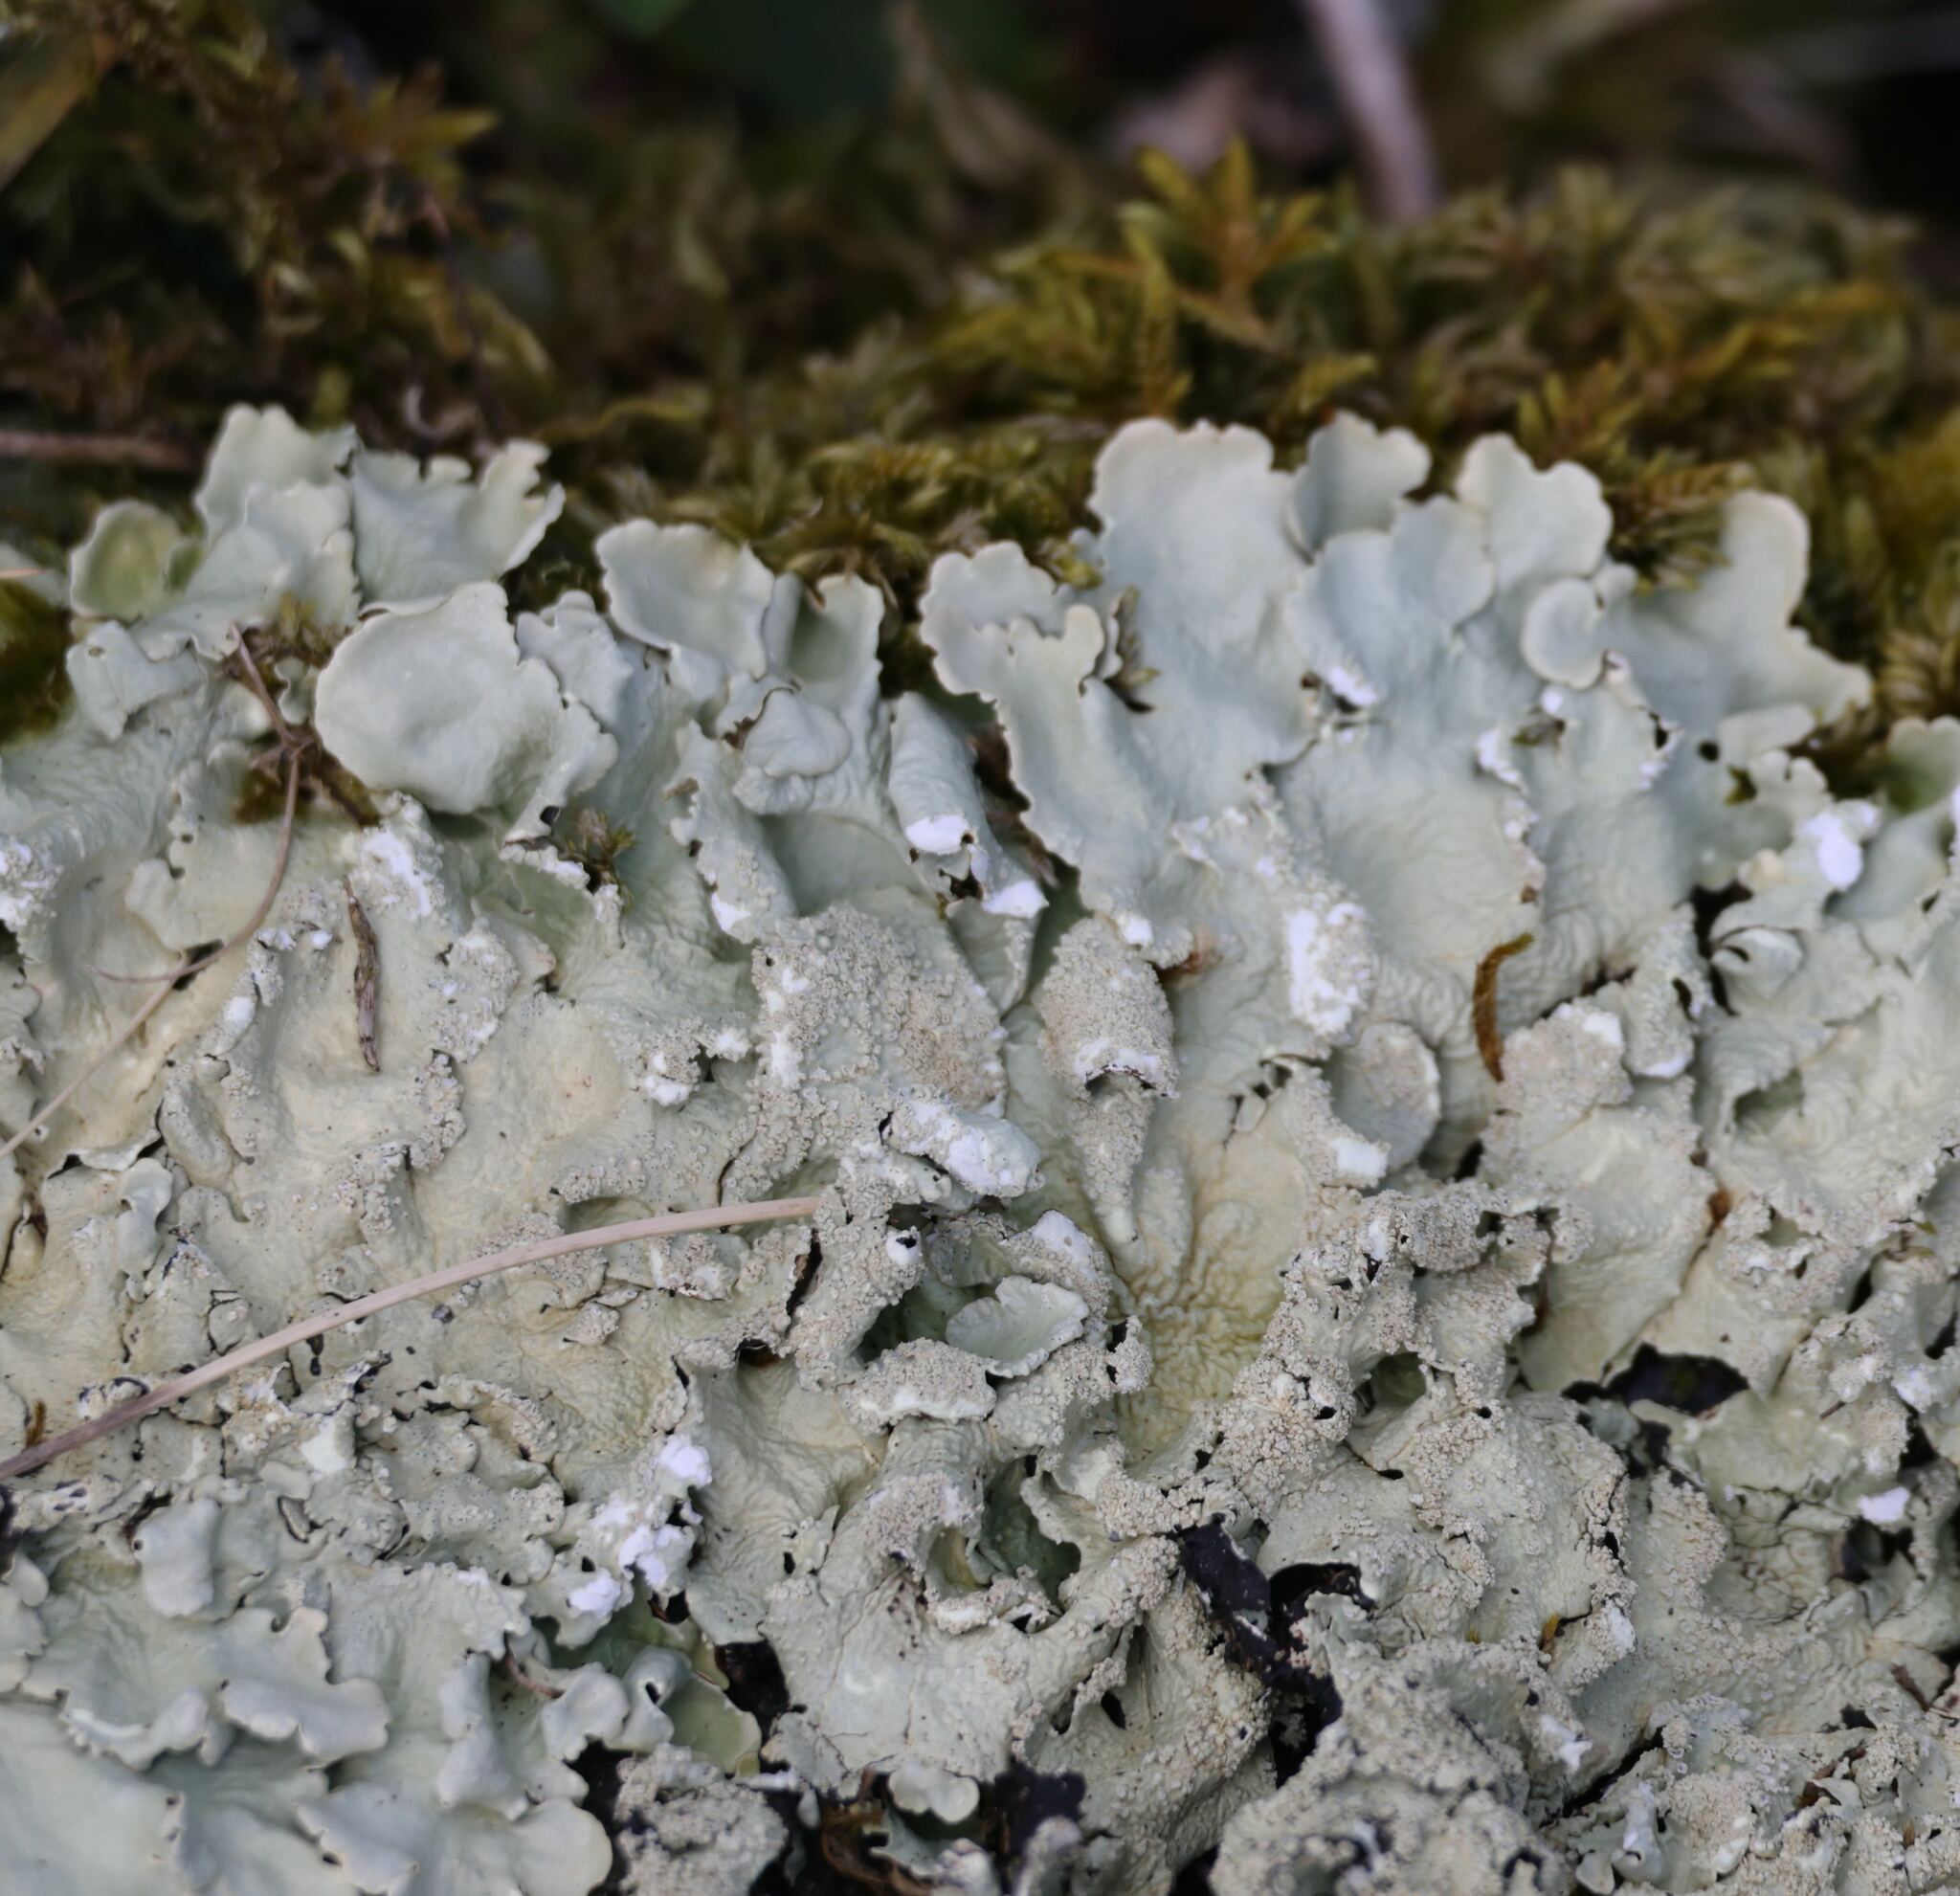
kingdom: Fungi
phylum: Ascomycota
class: Lecanoromycetes
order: Lecanorales
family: Parmeliaceae
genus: Flavoparmelia
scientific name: Flavoparmelia caperata
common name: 40-mile per hour lichen
